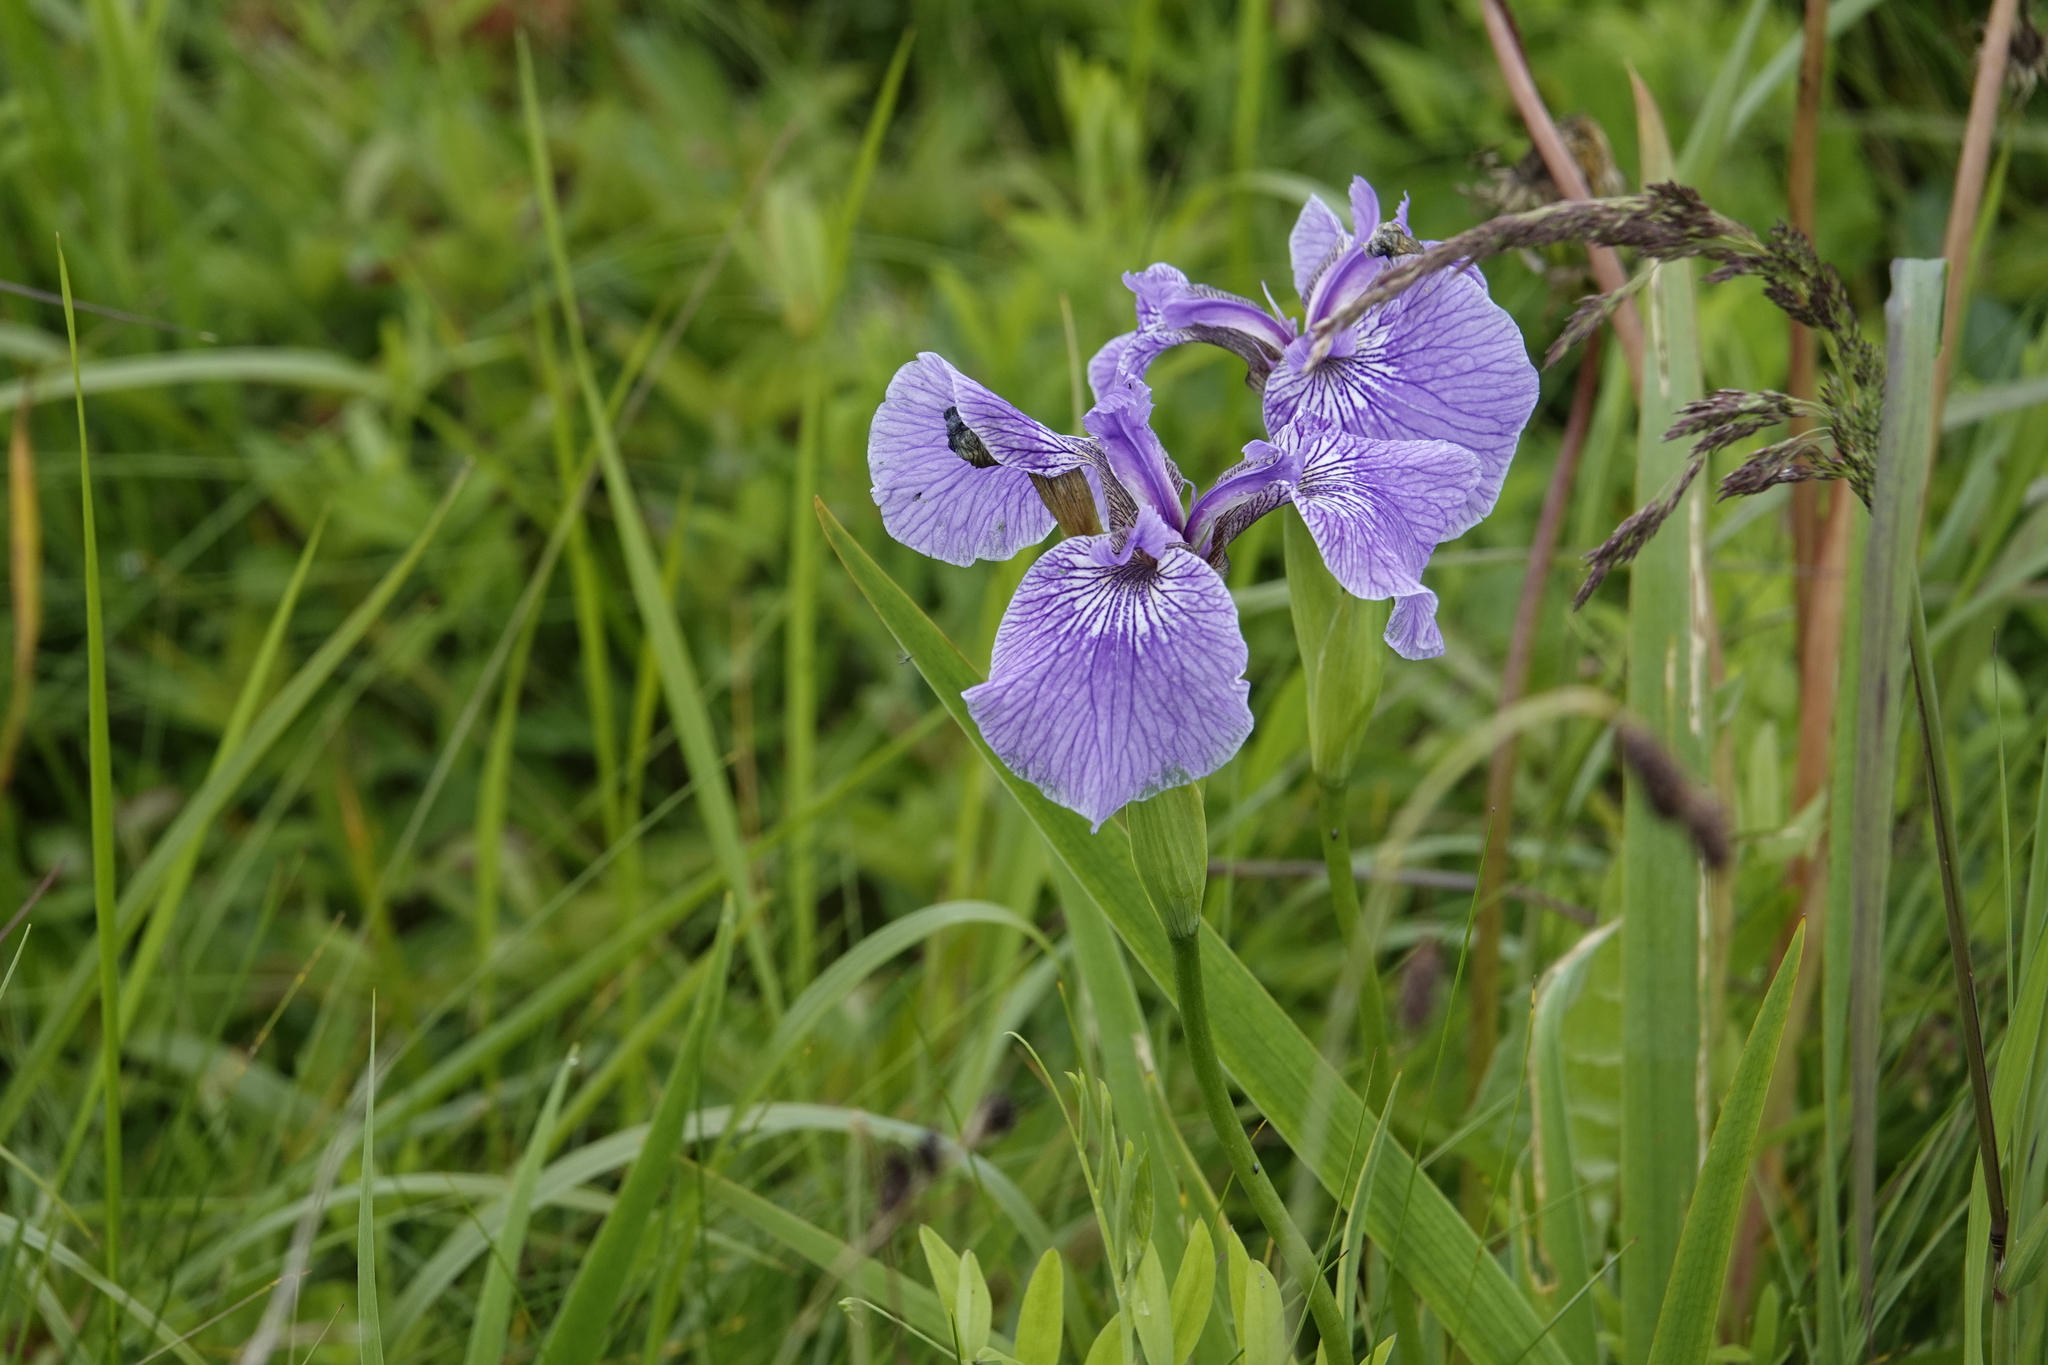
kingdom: Plantae
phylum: Tracheophyta
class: Liliopsida
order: Asparagales
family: Iridaceae
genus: Iris
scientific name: Iris hookeri
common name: Canada beach-head iris
